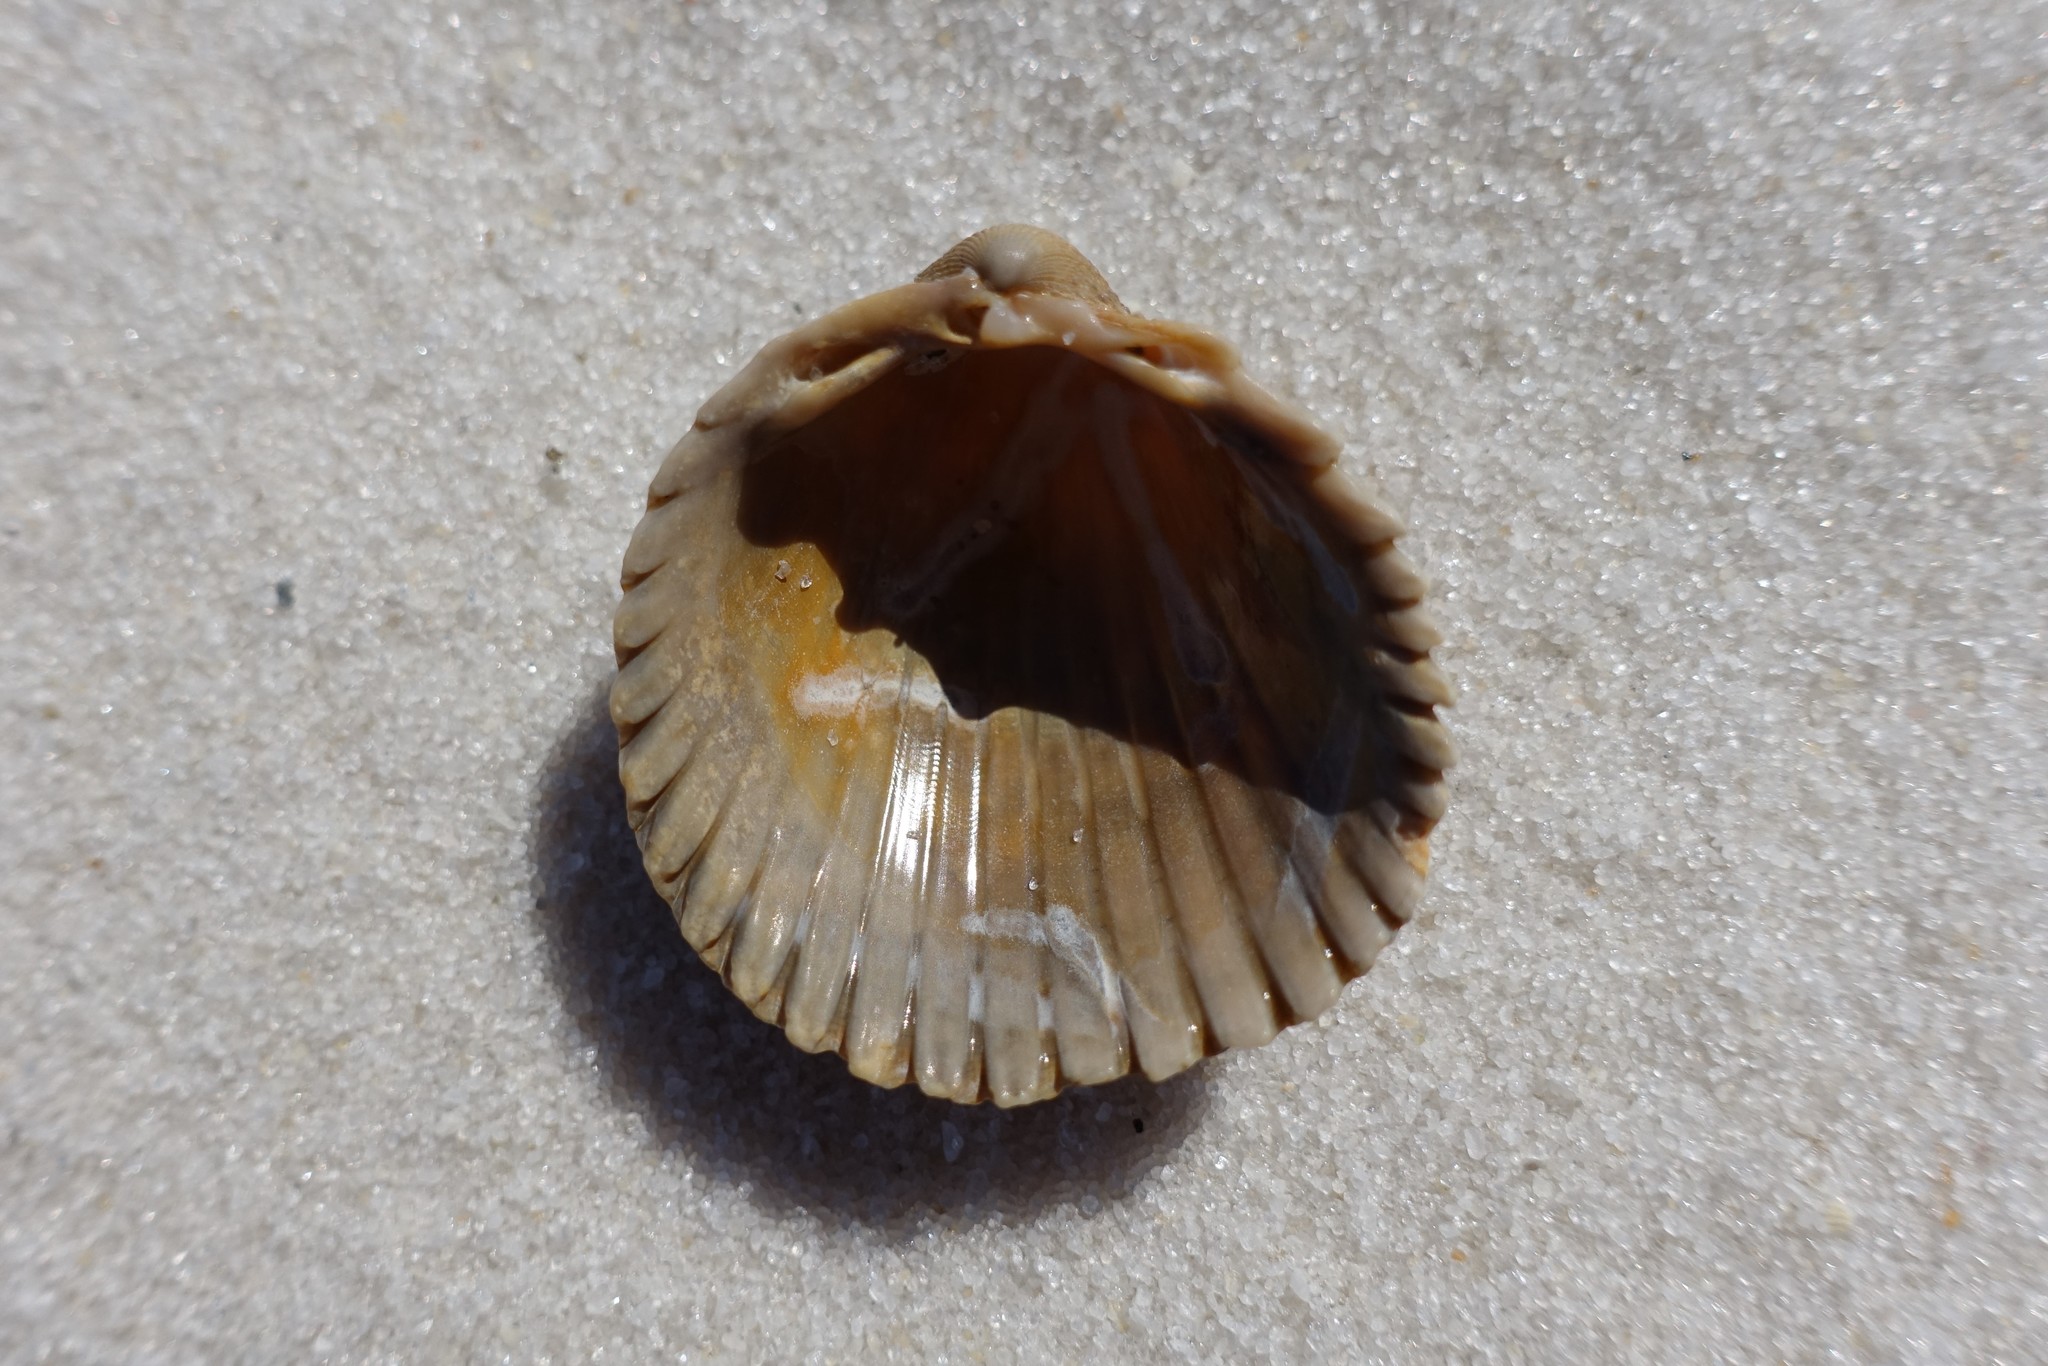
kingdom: Animalia
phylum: Mollusca
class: Bivalvia
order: Cardiida
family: Cardiidae
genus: Dallocardia
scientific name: Dallocardia muricata
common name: Yellow pricklycockle
